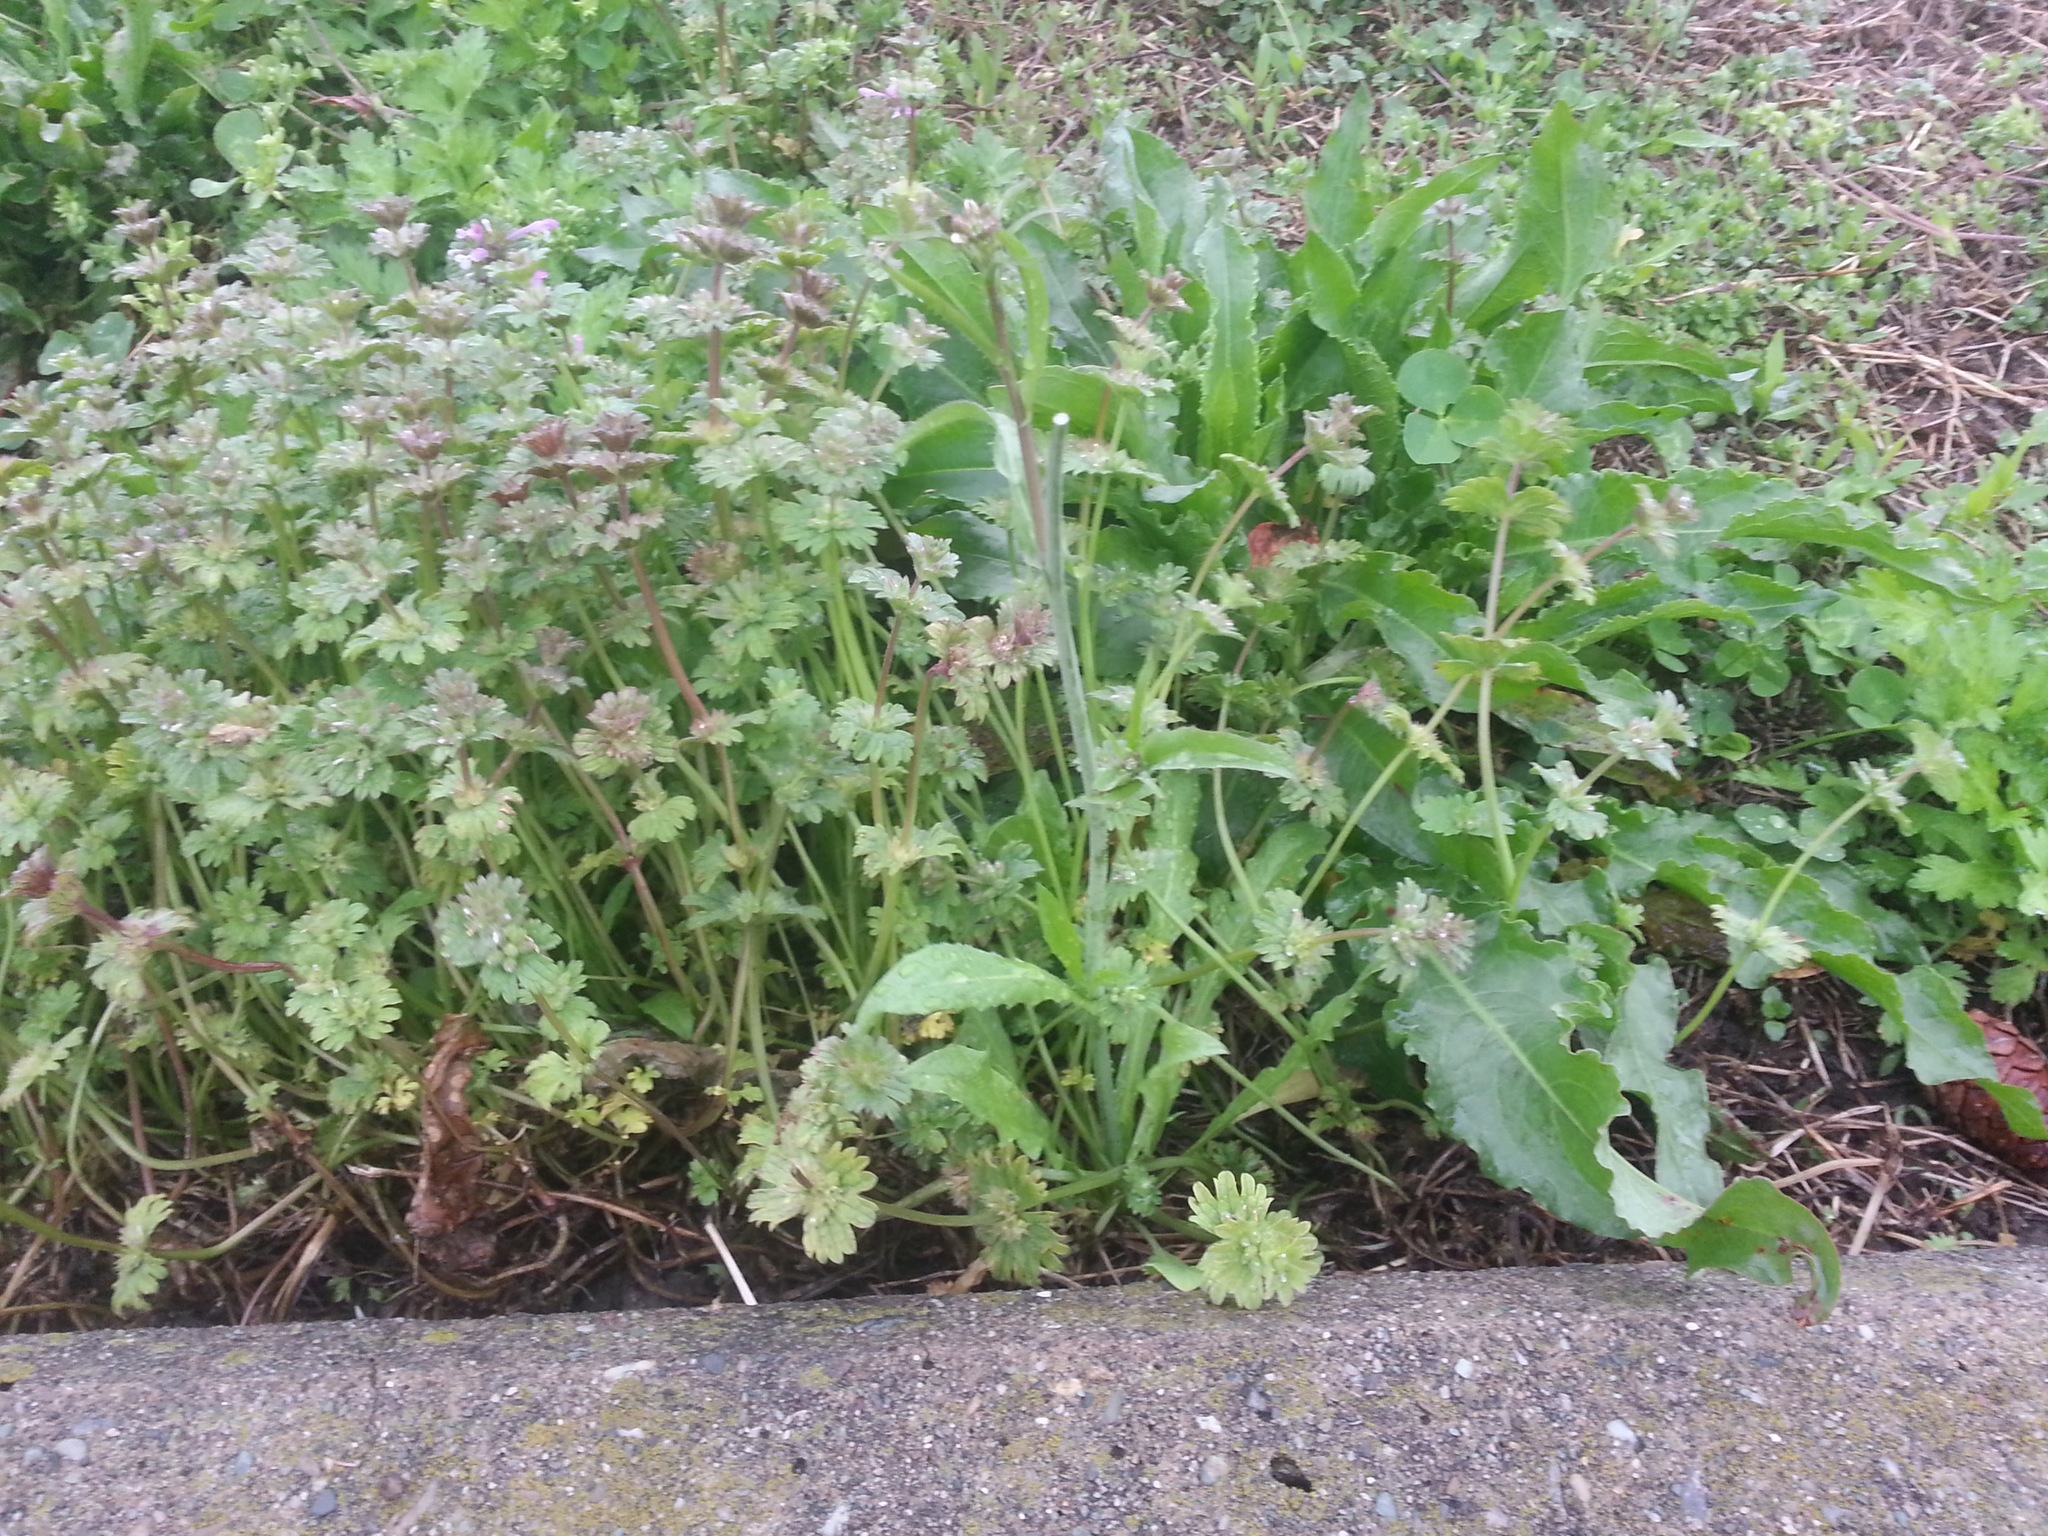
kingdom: Plantae
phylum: Tracheophyta
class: Magnoliopsida
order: Lamiales
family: Lamiaceae
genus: Lamium
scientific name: Lamium amplexicaule
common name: Henbit dead-nettle
